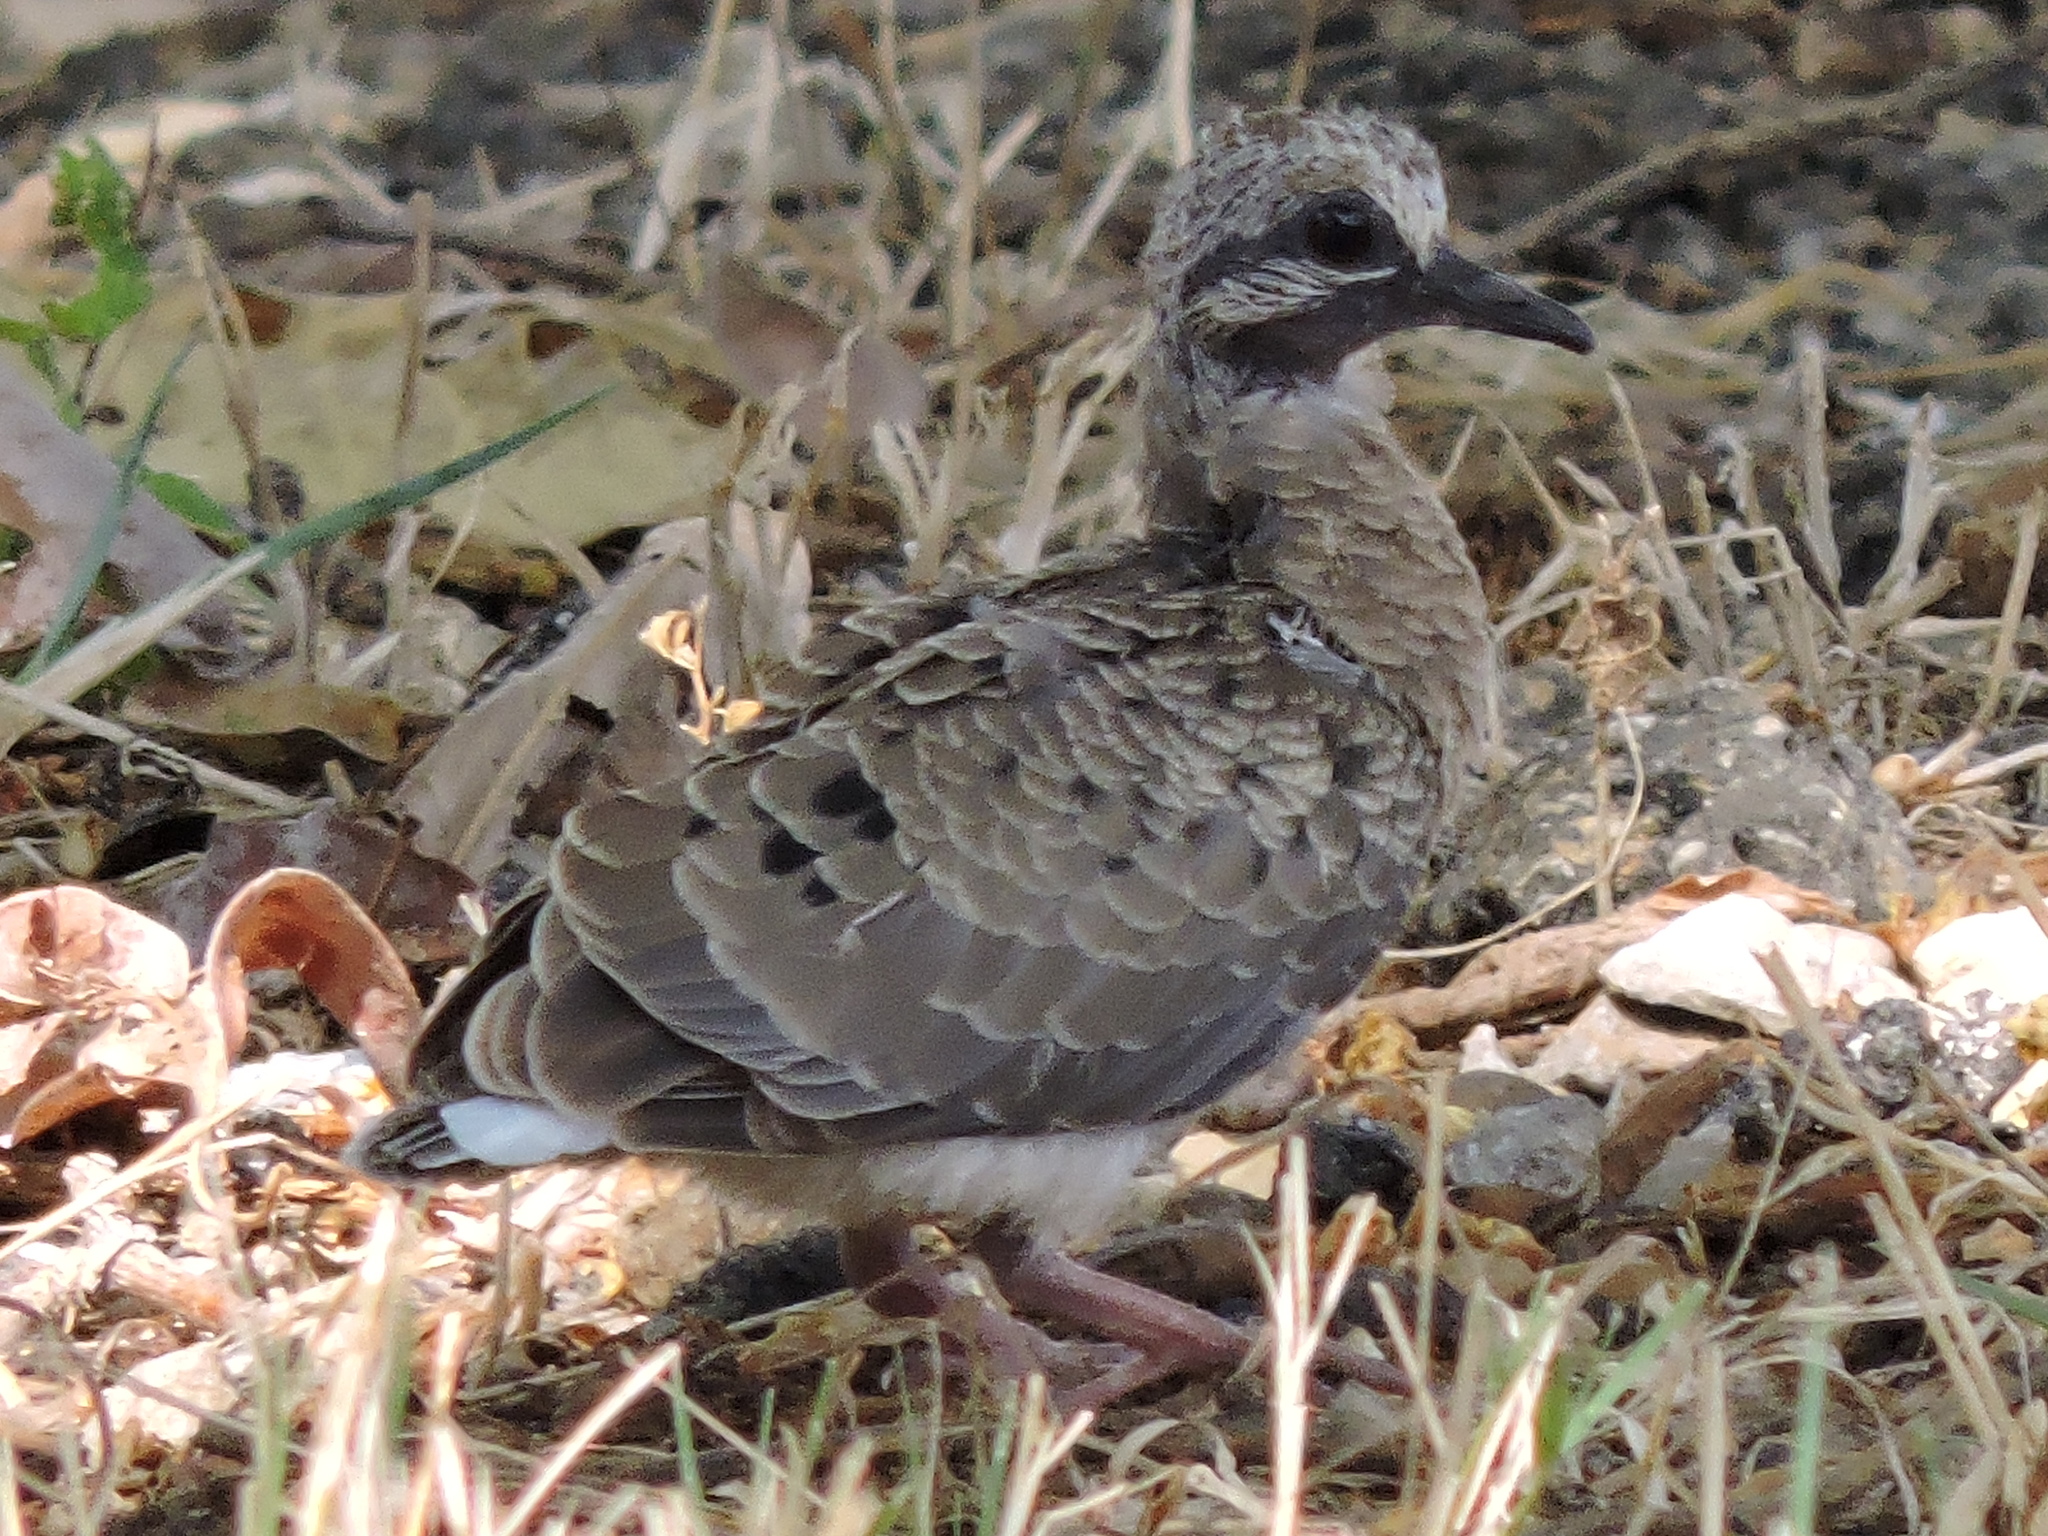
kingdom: Animalia
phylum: Chordata
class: Aves
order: Columbiformes
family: Columbidae
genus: Zenaida
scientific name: Zenaida macroura
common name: Mourning dove
